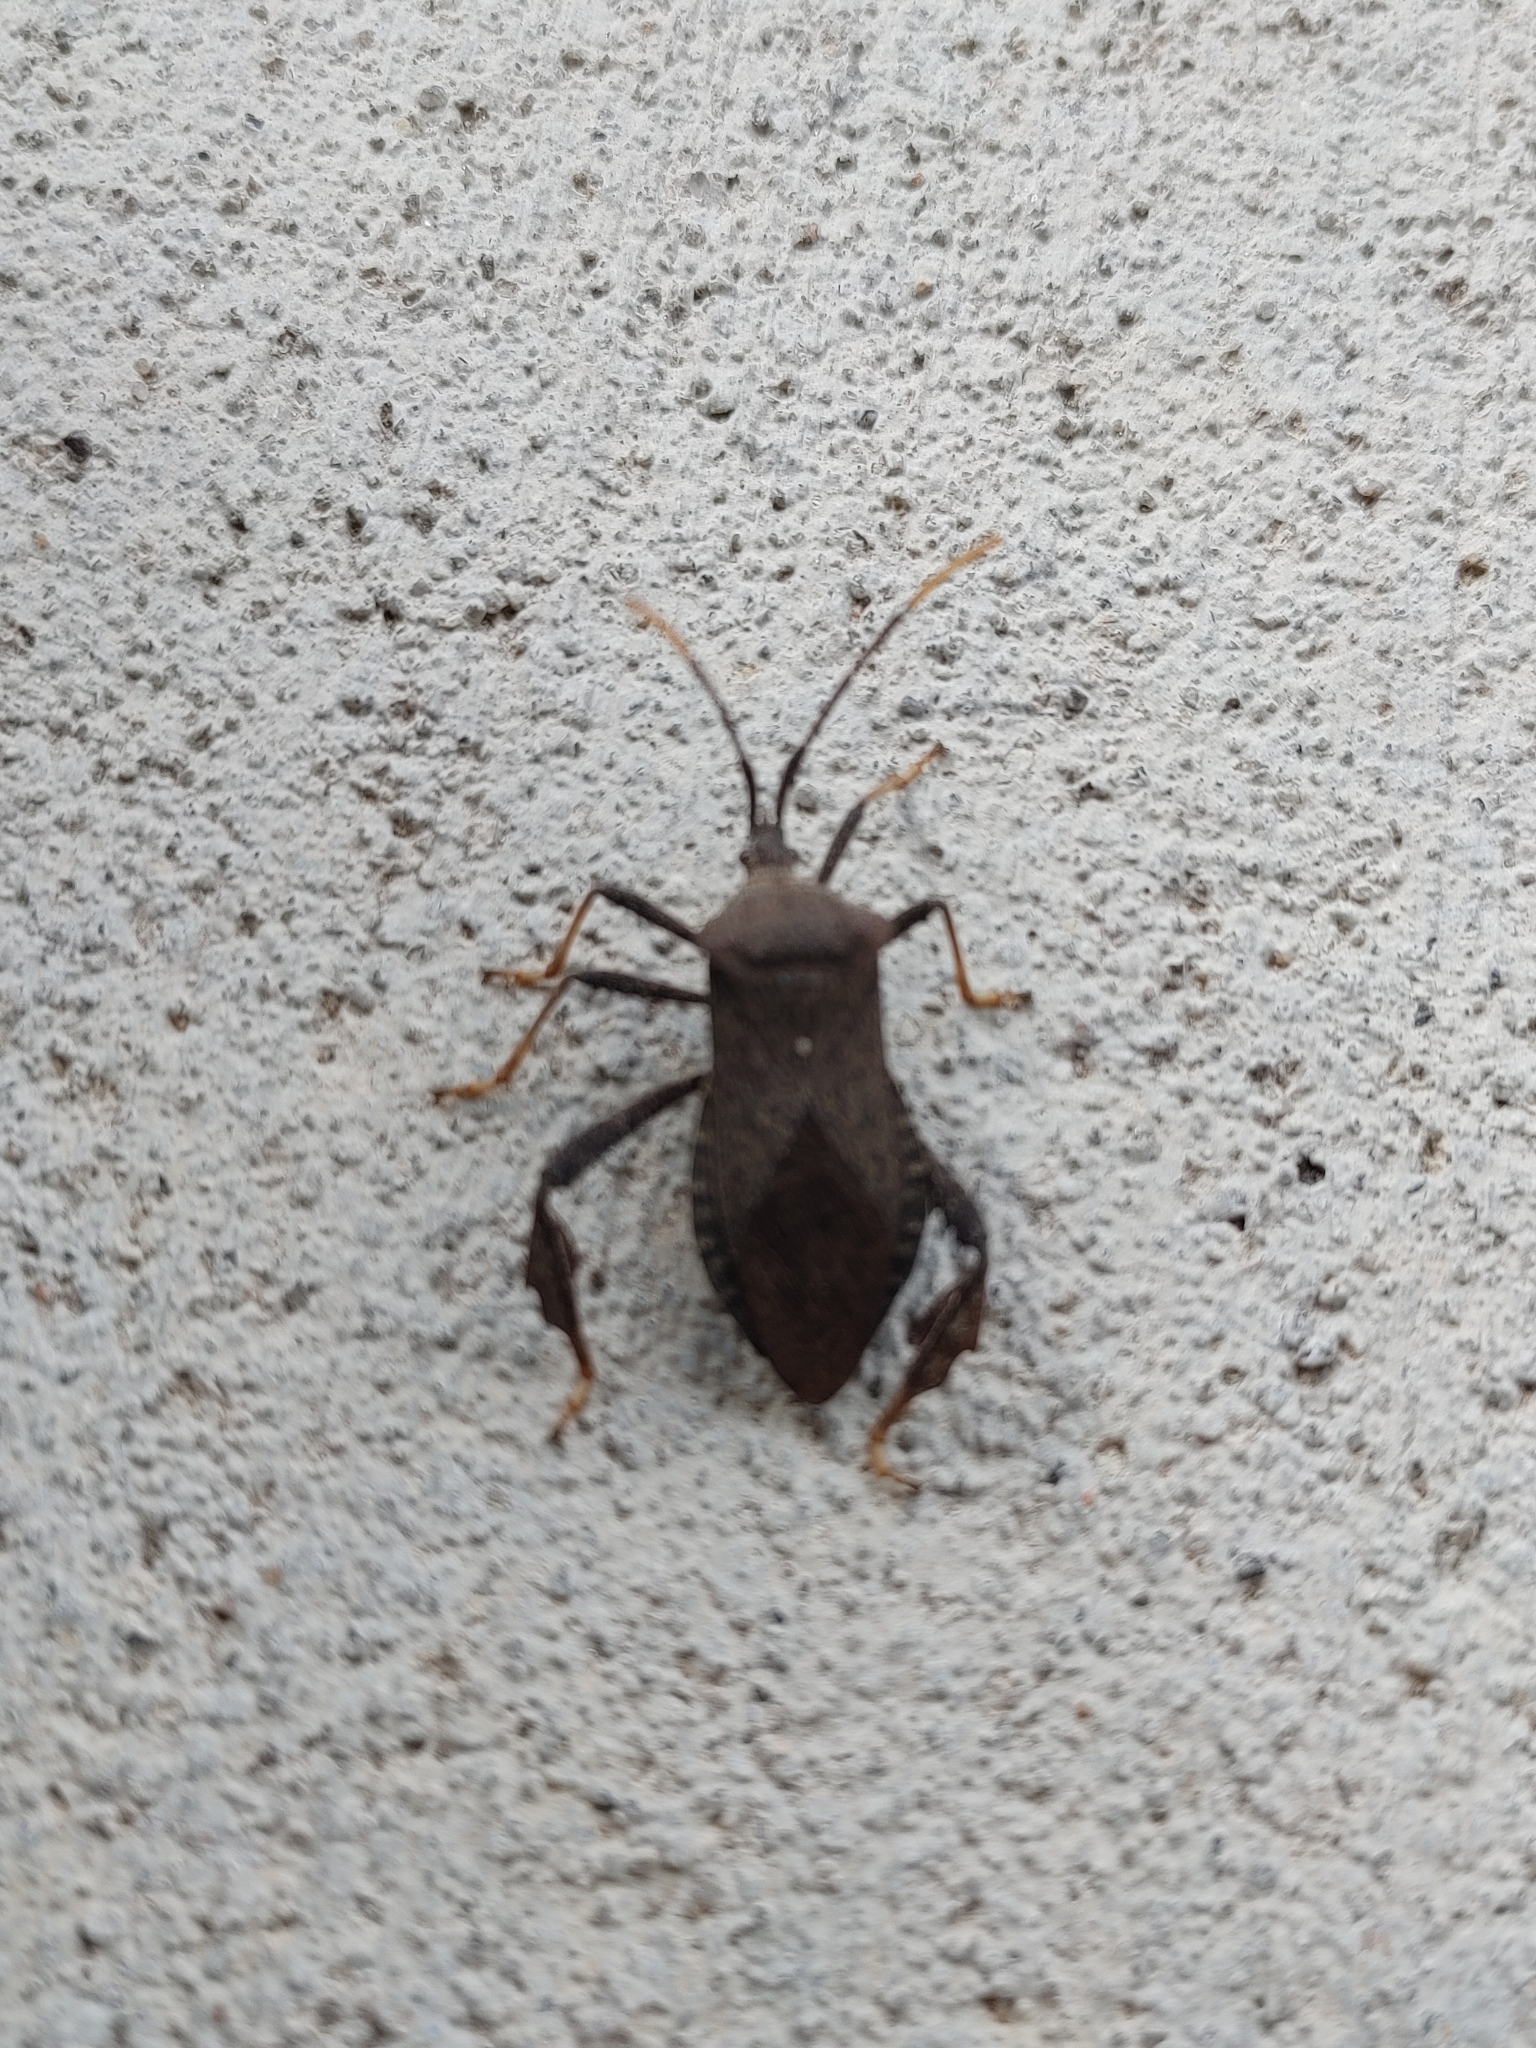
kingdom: Animalia
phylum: Arthropoda
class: Insecta
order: Hemiptera
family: Coreidae
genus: Acanthocephala
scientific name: Acanthocephala terminalis
